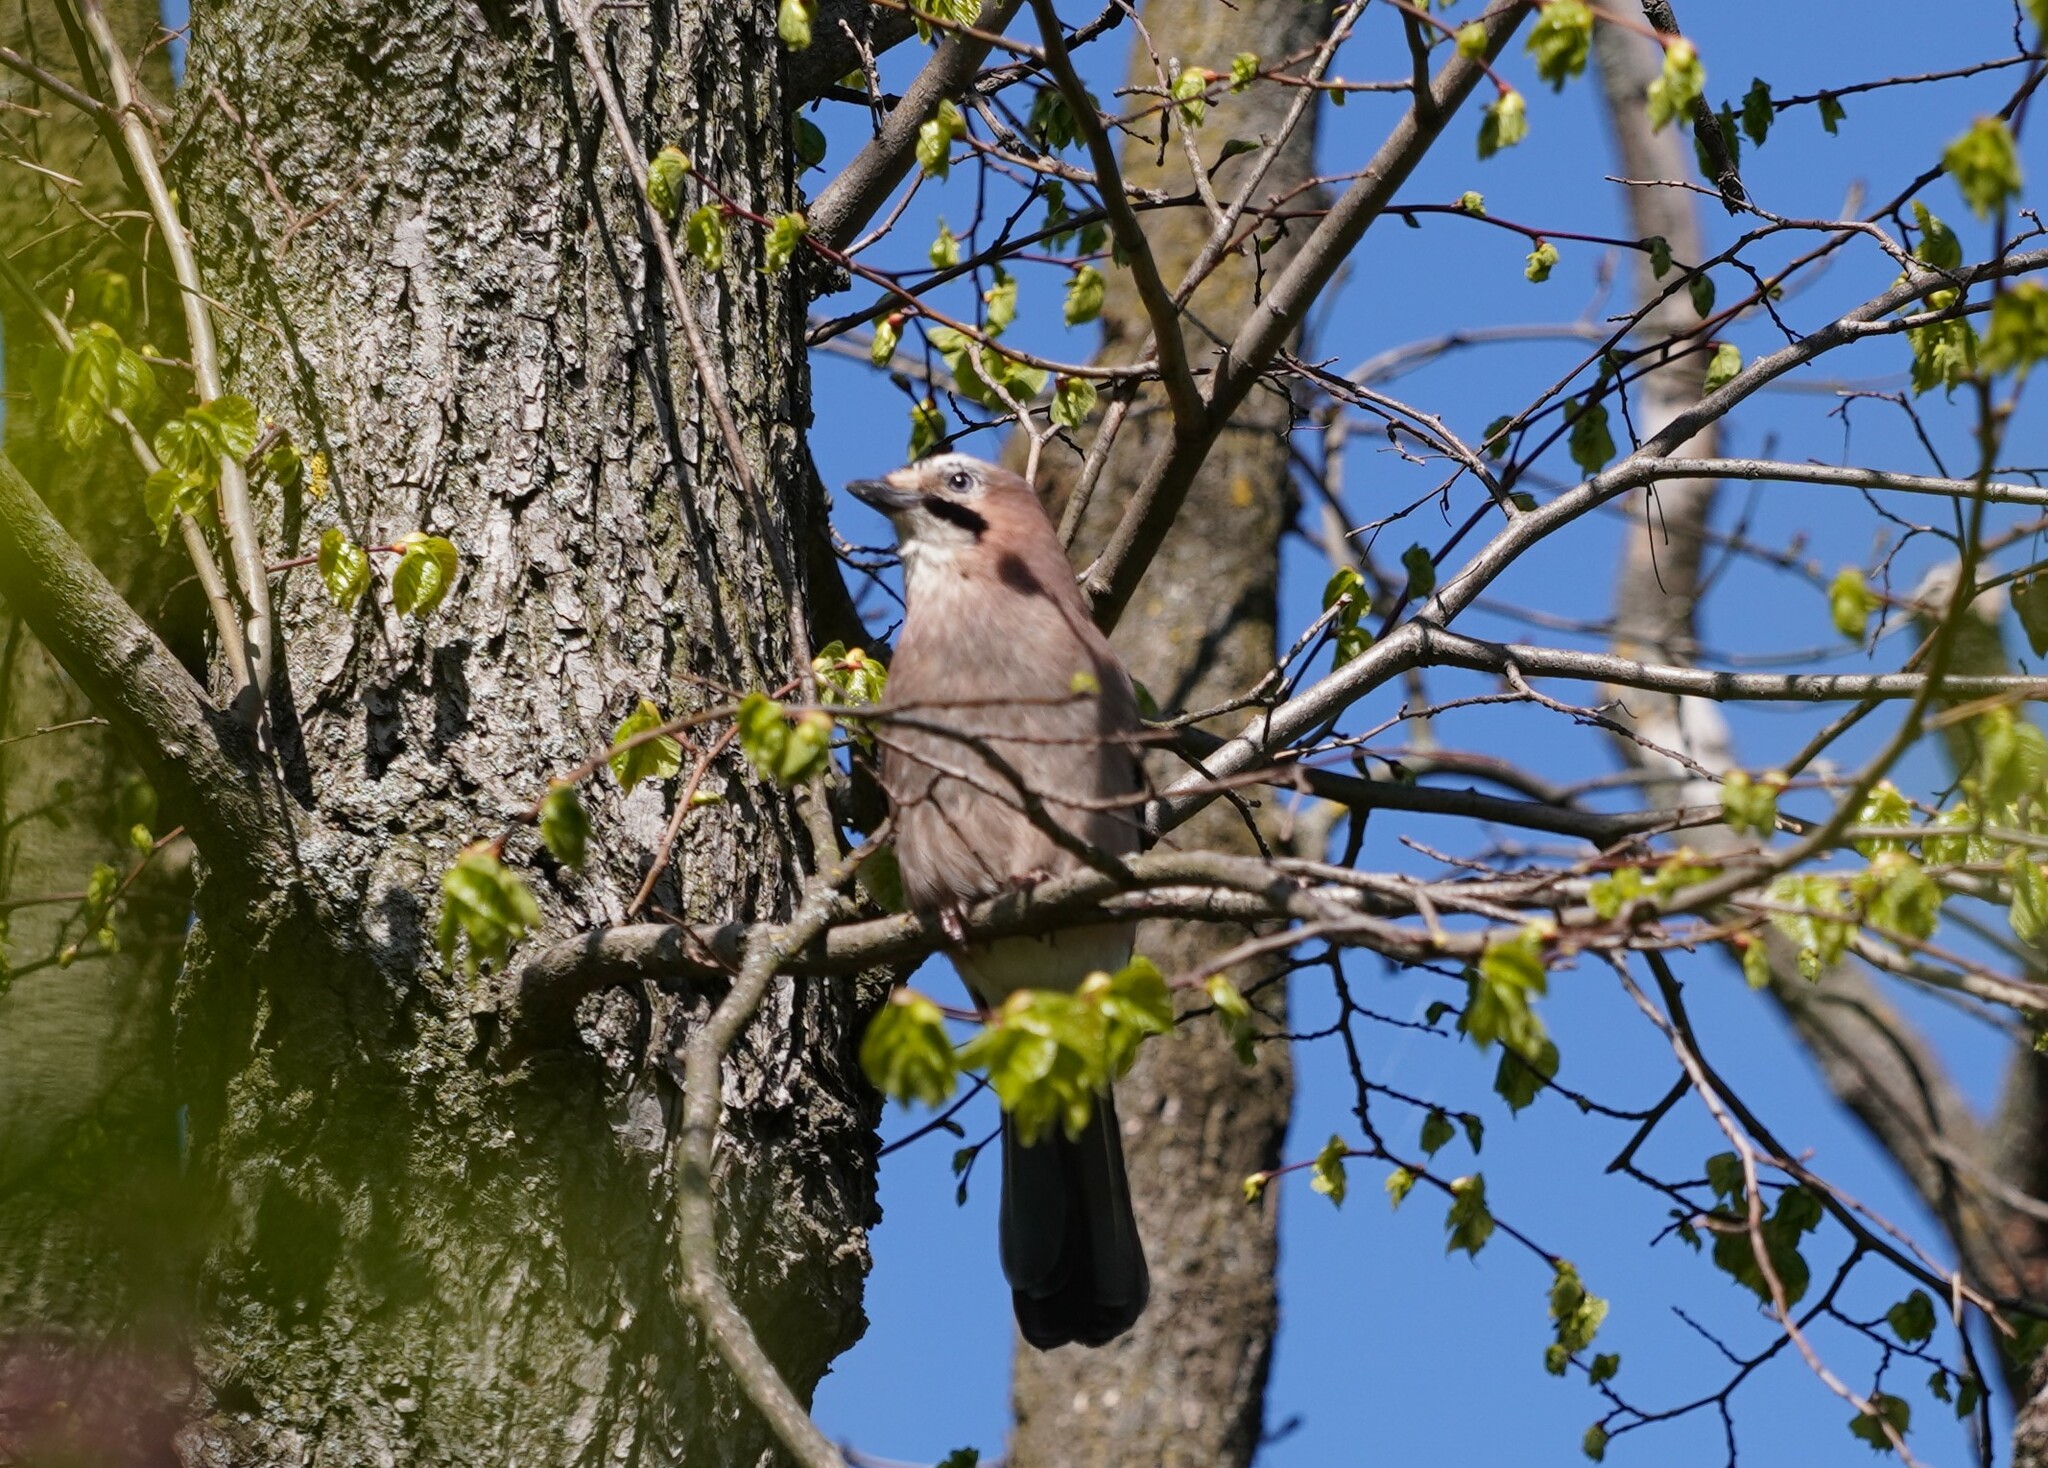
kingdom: Animalia
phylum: Chordata
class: Aves
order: Passeriformes
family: Corvidae
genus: Garrulus
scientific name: Garrulus glandarius
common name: Eurasian jay
